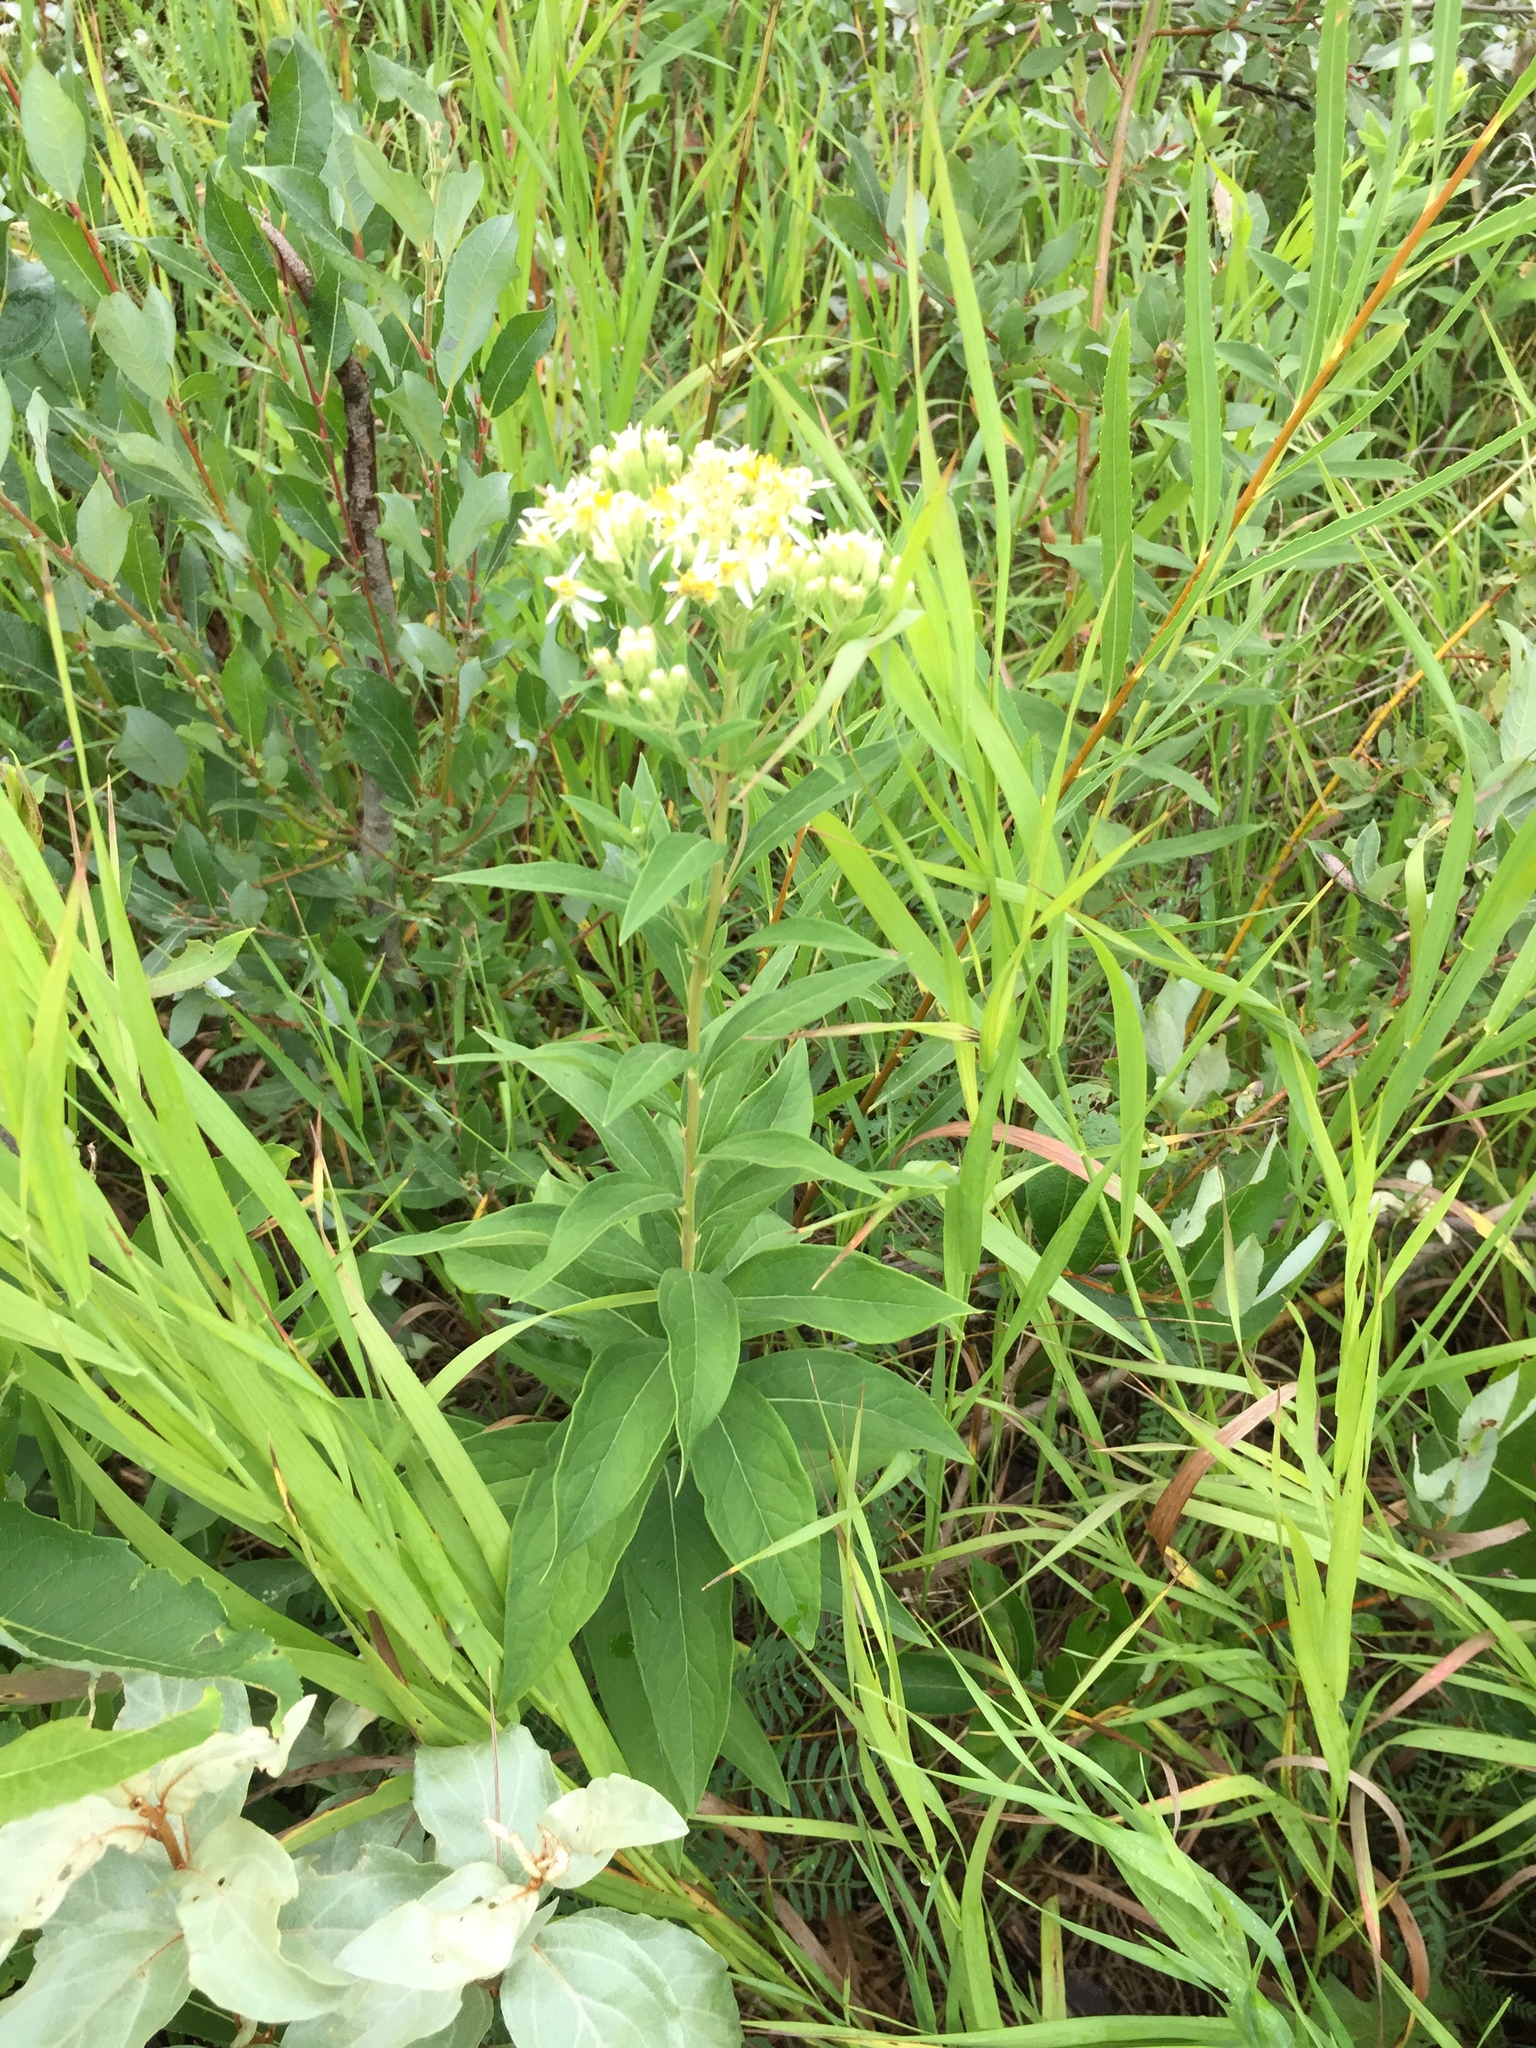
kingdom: Plantae
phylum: Tracheophyta
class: Magnoliopsida
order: Asterales
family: Asteraceae
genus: Doellingeria
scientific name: Doellingeria umbellata
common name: Flat-top white aster
